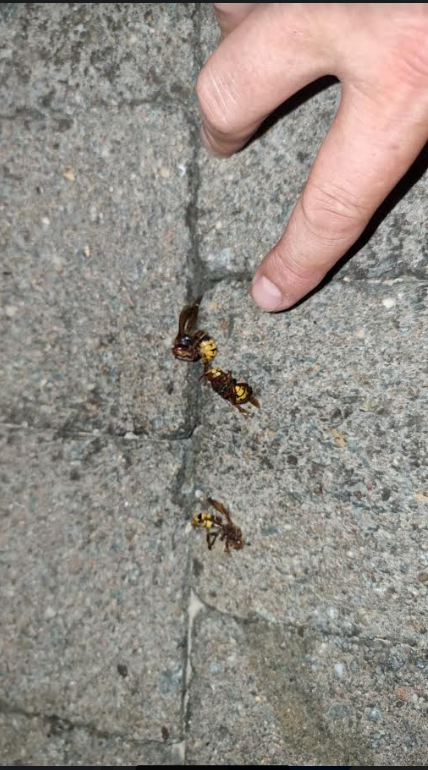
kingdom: Animalia
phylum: Arthropoda
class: Insecta
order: Hymenoptera
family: Vespidae
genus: Vespa
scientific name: Vespa crabro
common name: Hornet
